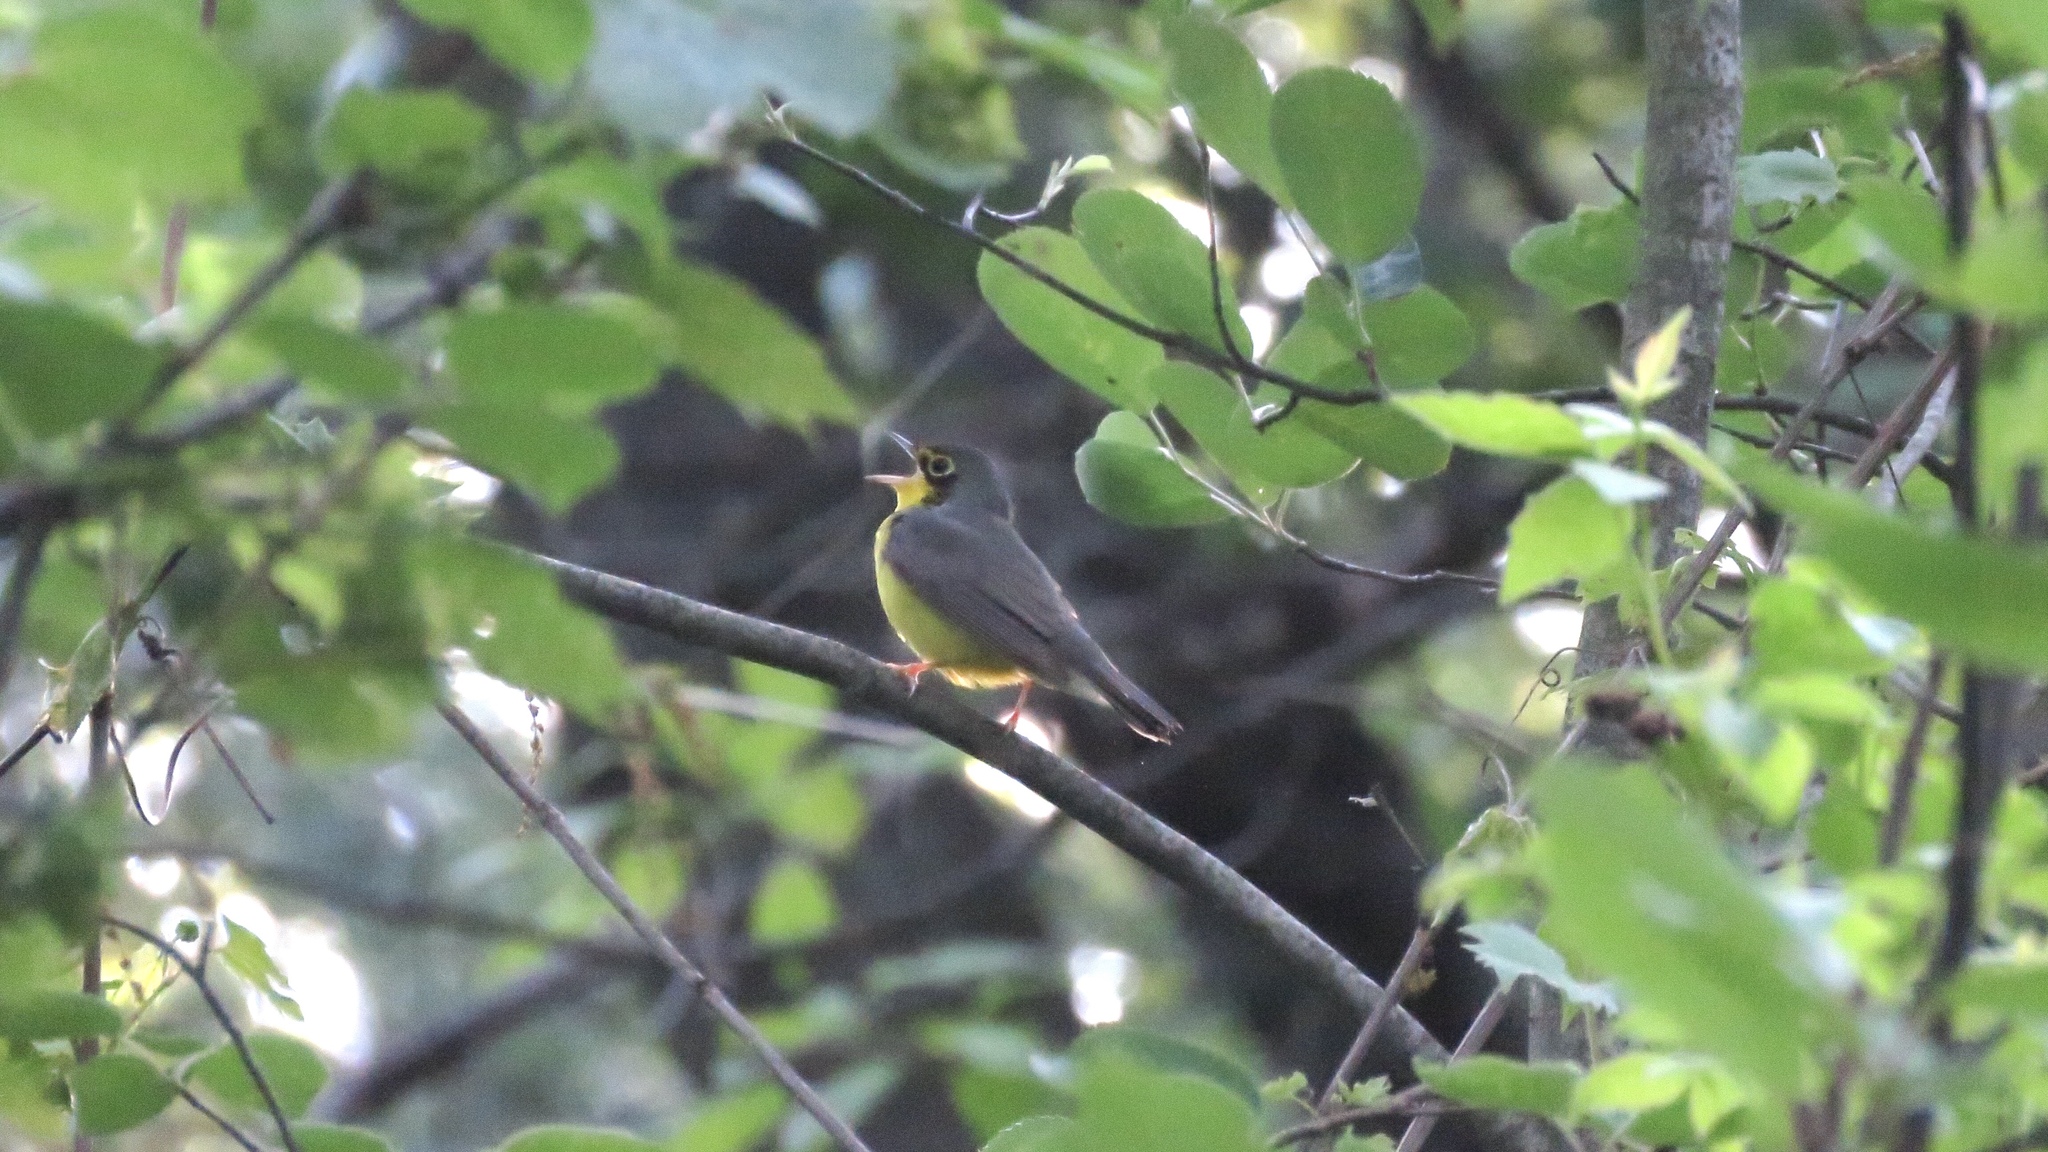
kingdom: Animalia
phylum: Chordata
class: Aves
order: Passeriformes
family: Parulidae
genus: Cardellina
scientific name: Cardellina canadensis
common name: Canada warbler
